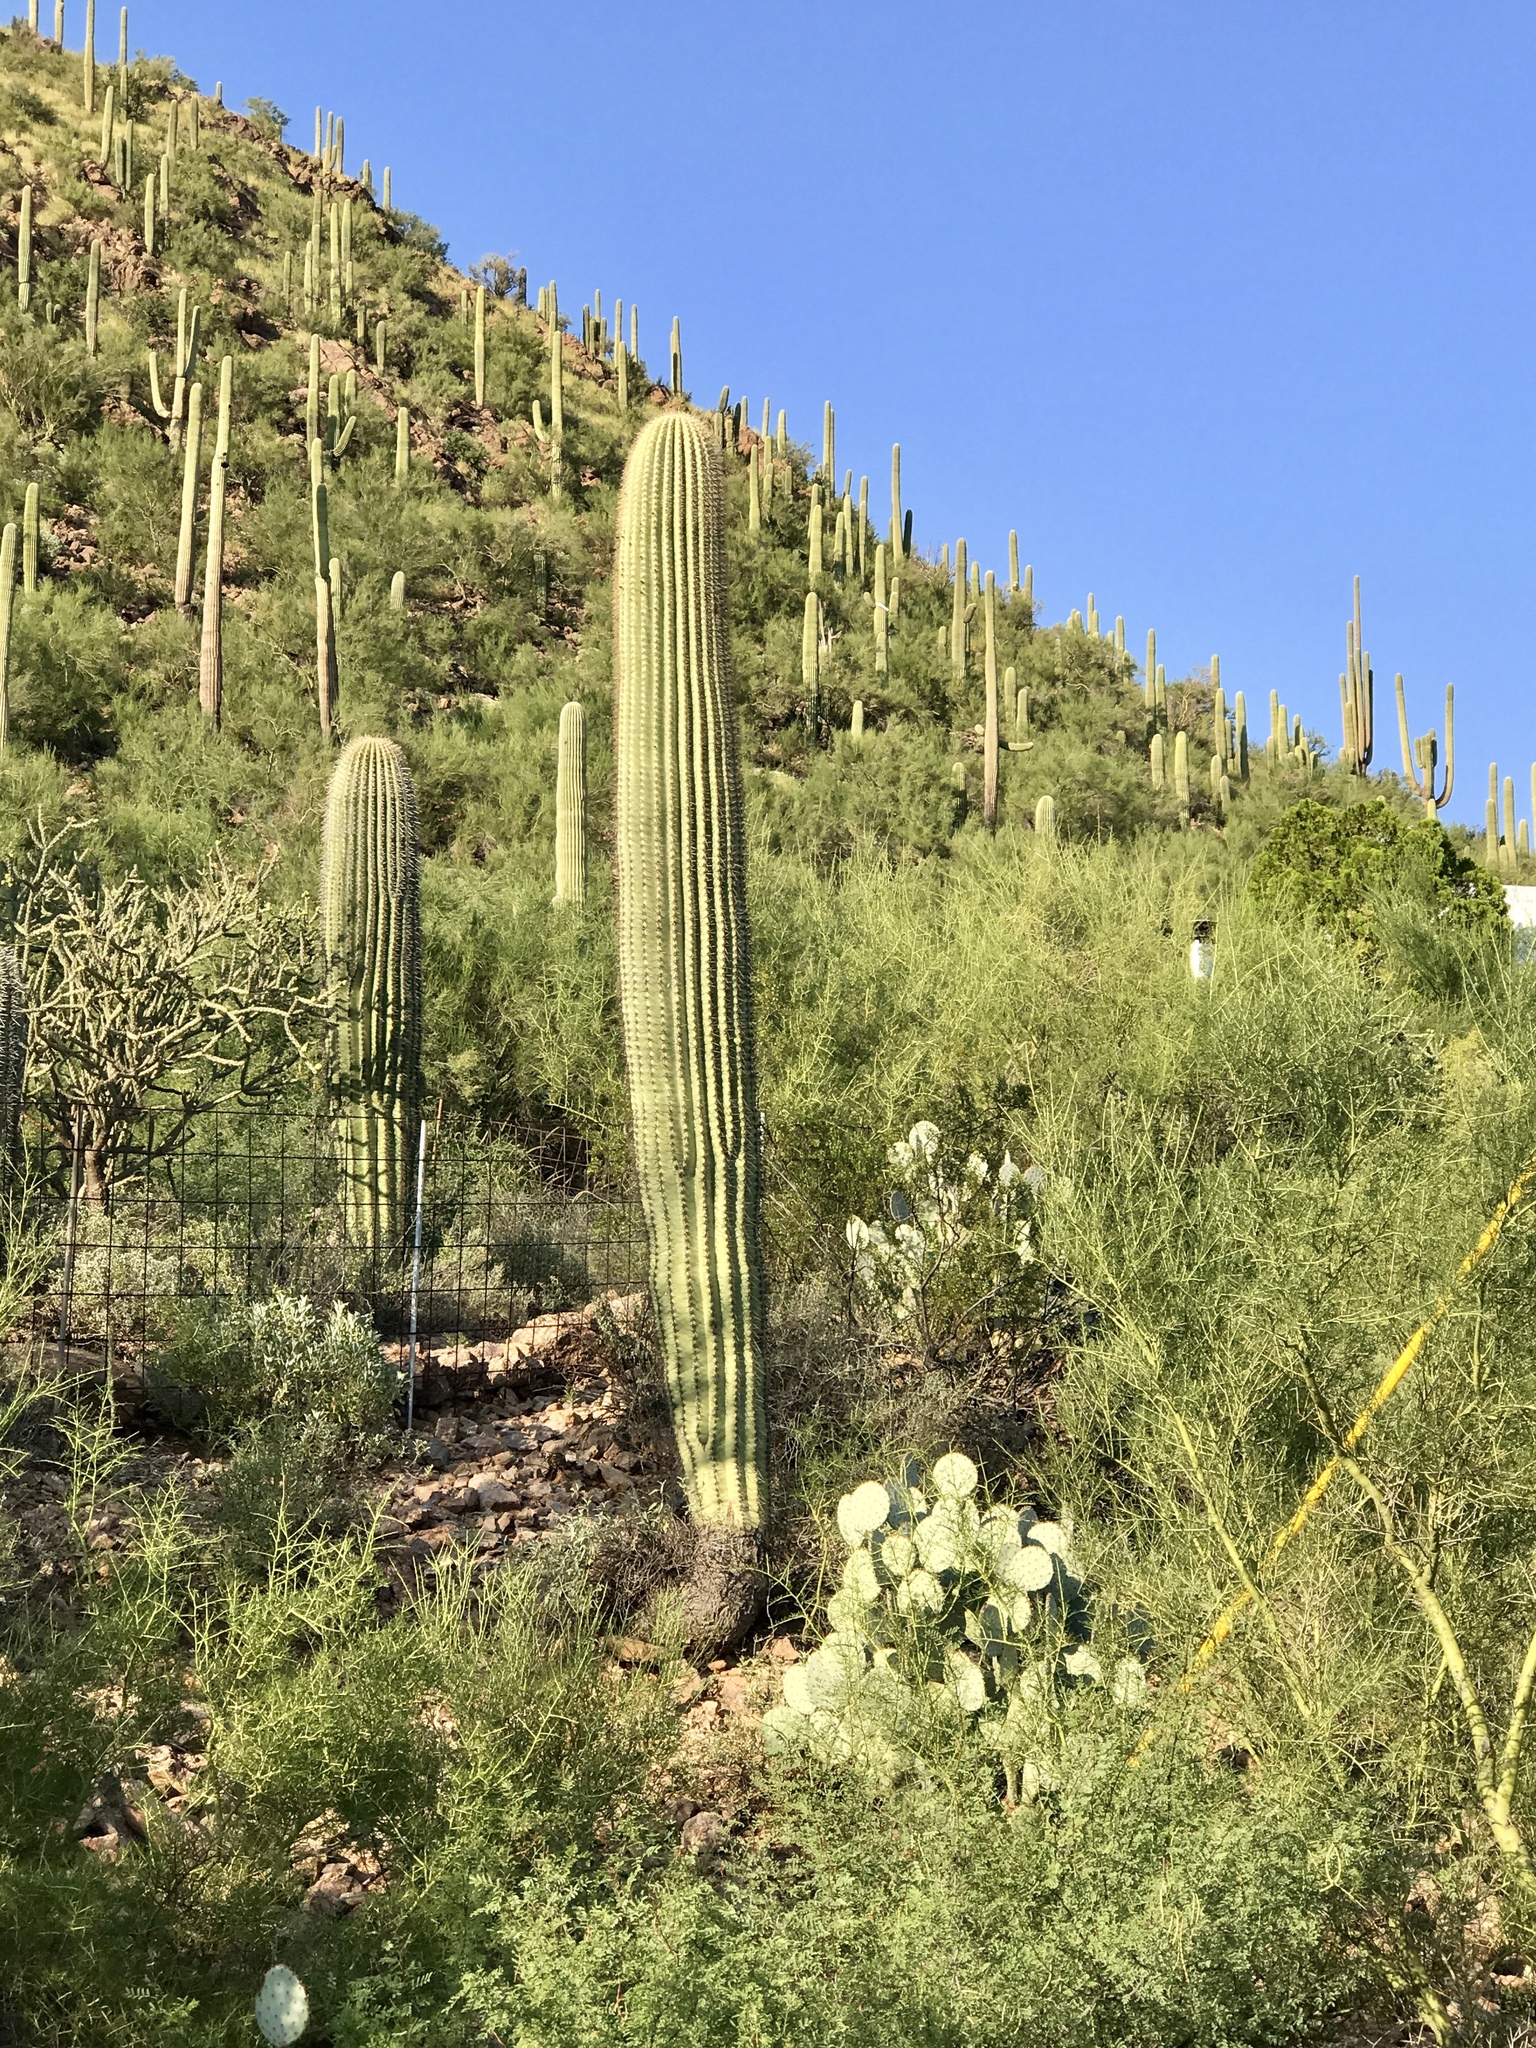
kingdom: Plantae
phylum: Tracheophyta
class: Magnoliopsida
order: Caryophyllales
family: Cactaceae
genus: Carnegiea
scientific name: Carnegiea gigantea
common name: Saguaro
